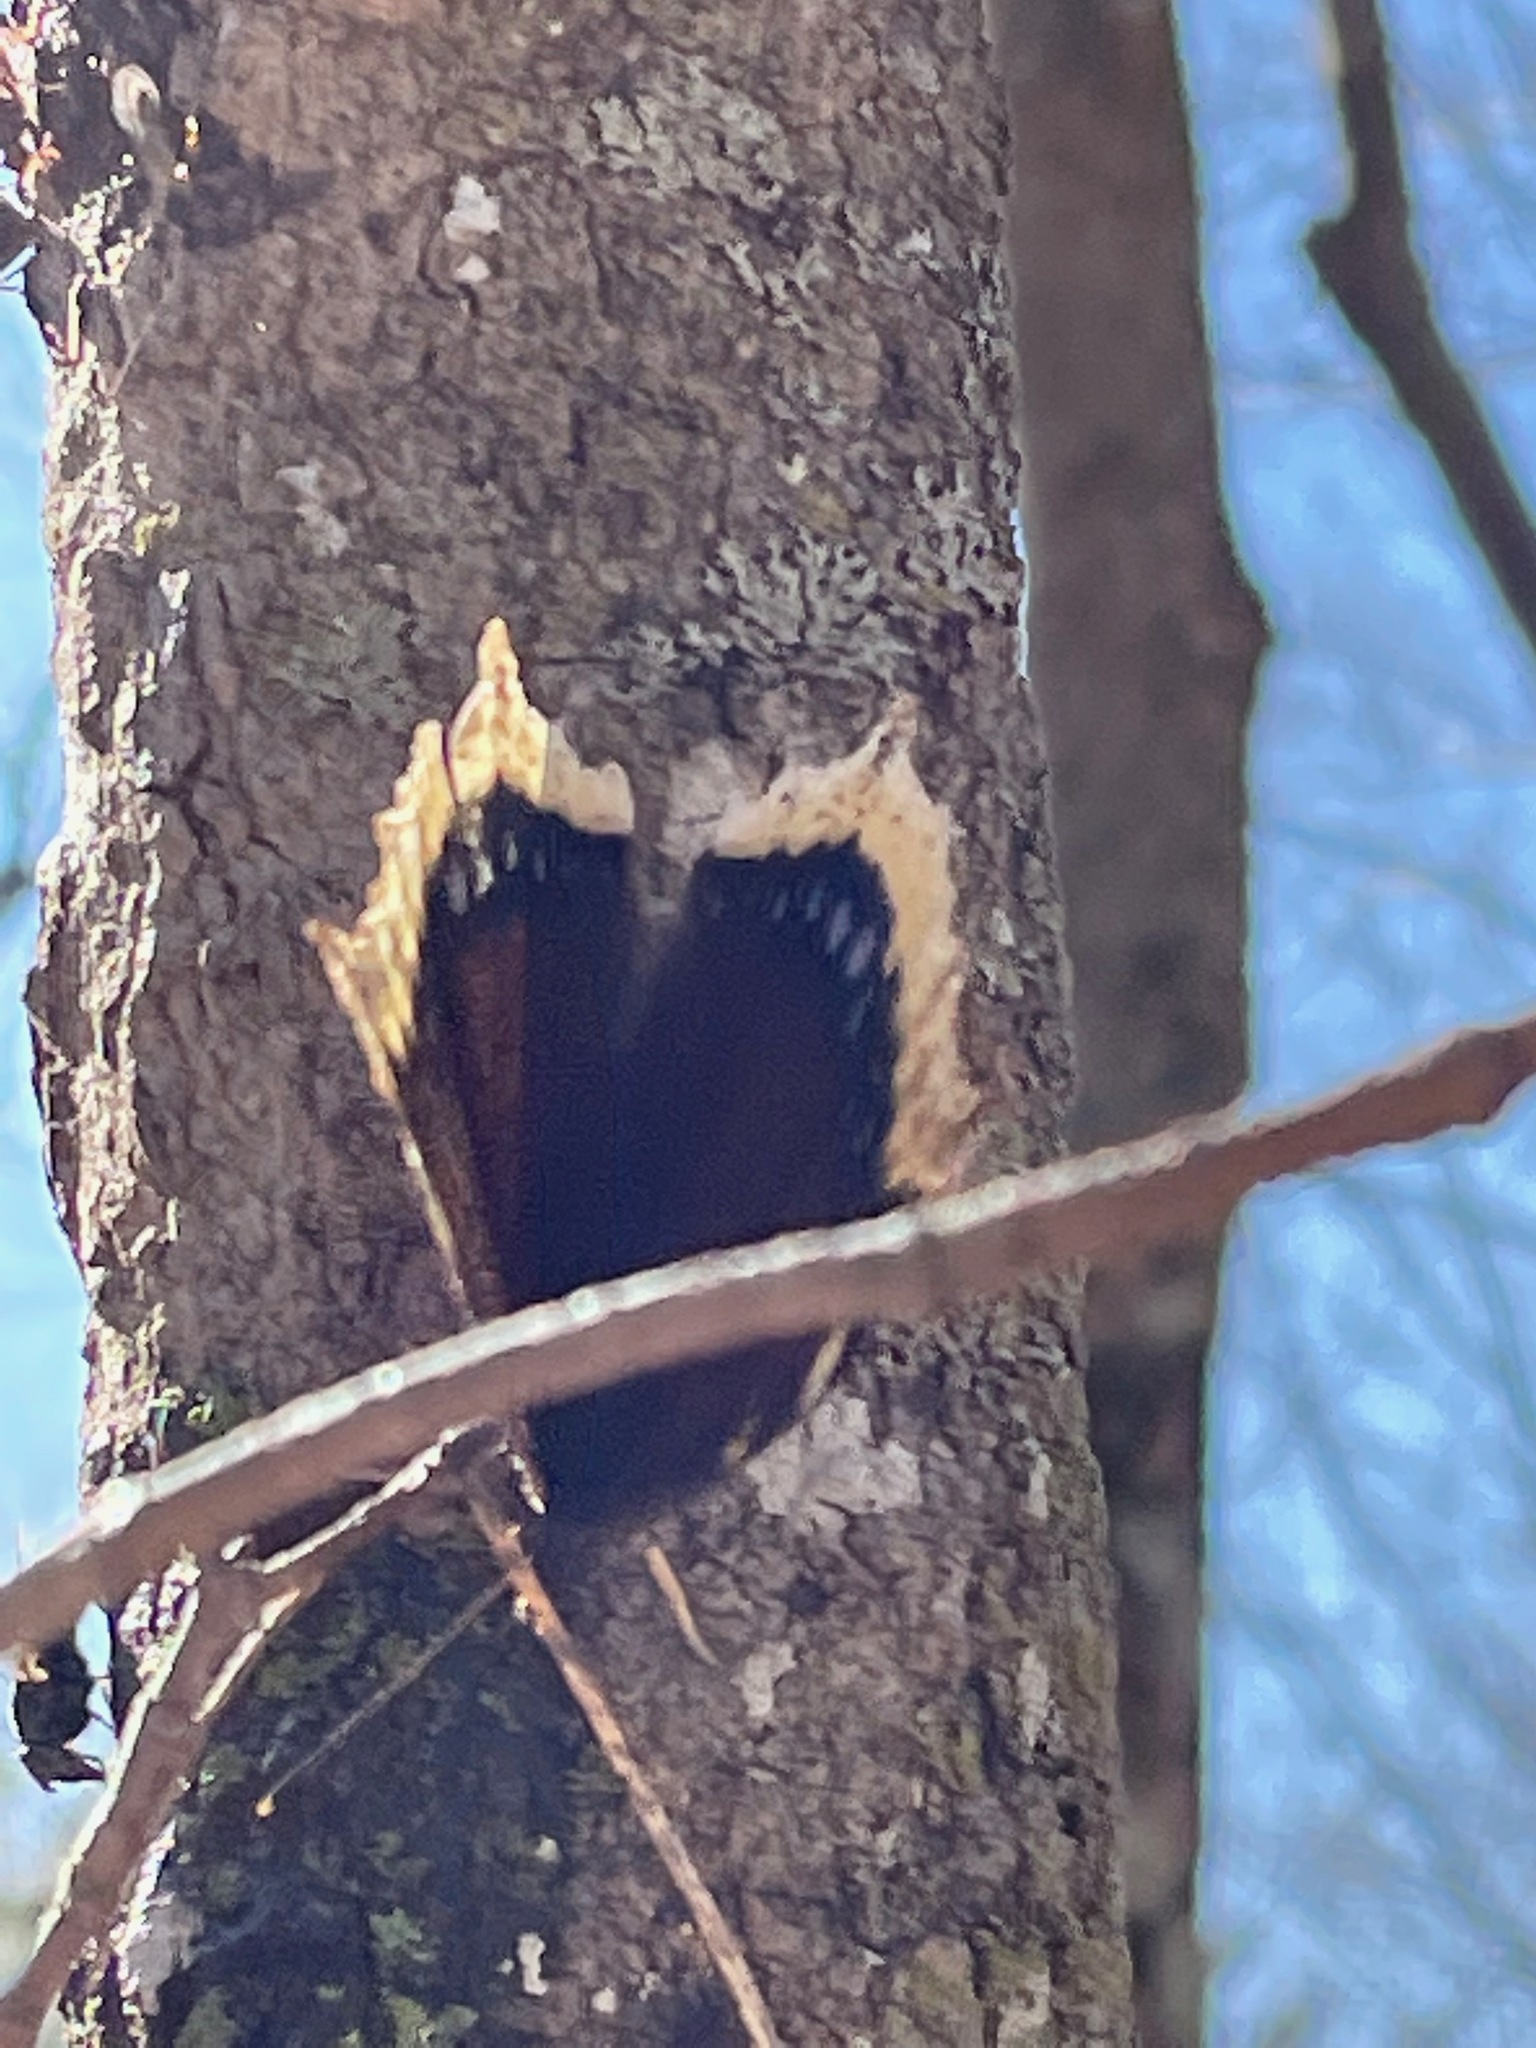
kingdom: Animalia
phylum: Arthropoda
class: Insecta
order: Lepidoptera
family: Nymphalidae
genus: Nymphalis
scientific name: Nymphalis antiopa
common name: Camberwell beauty
